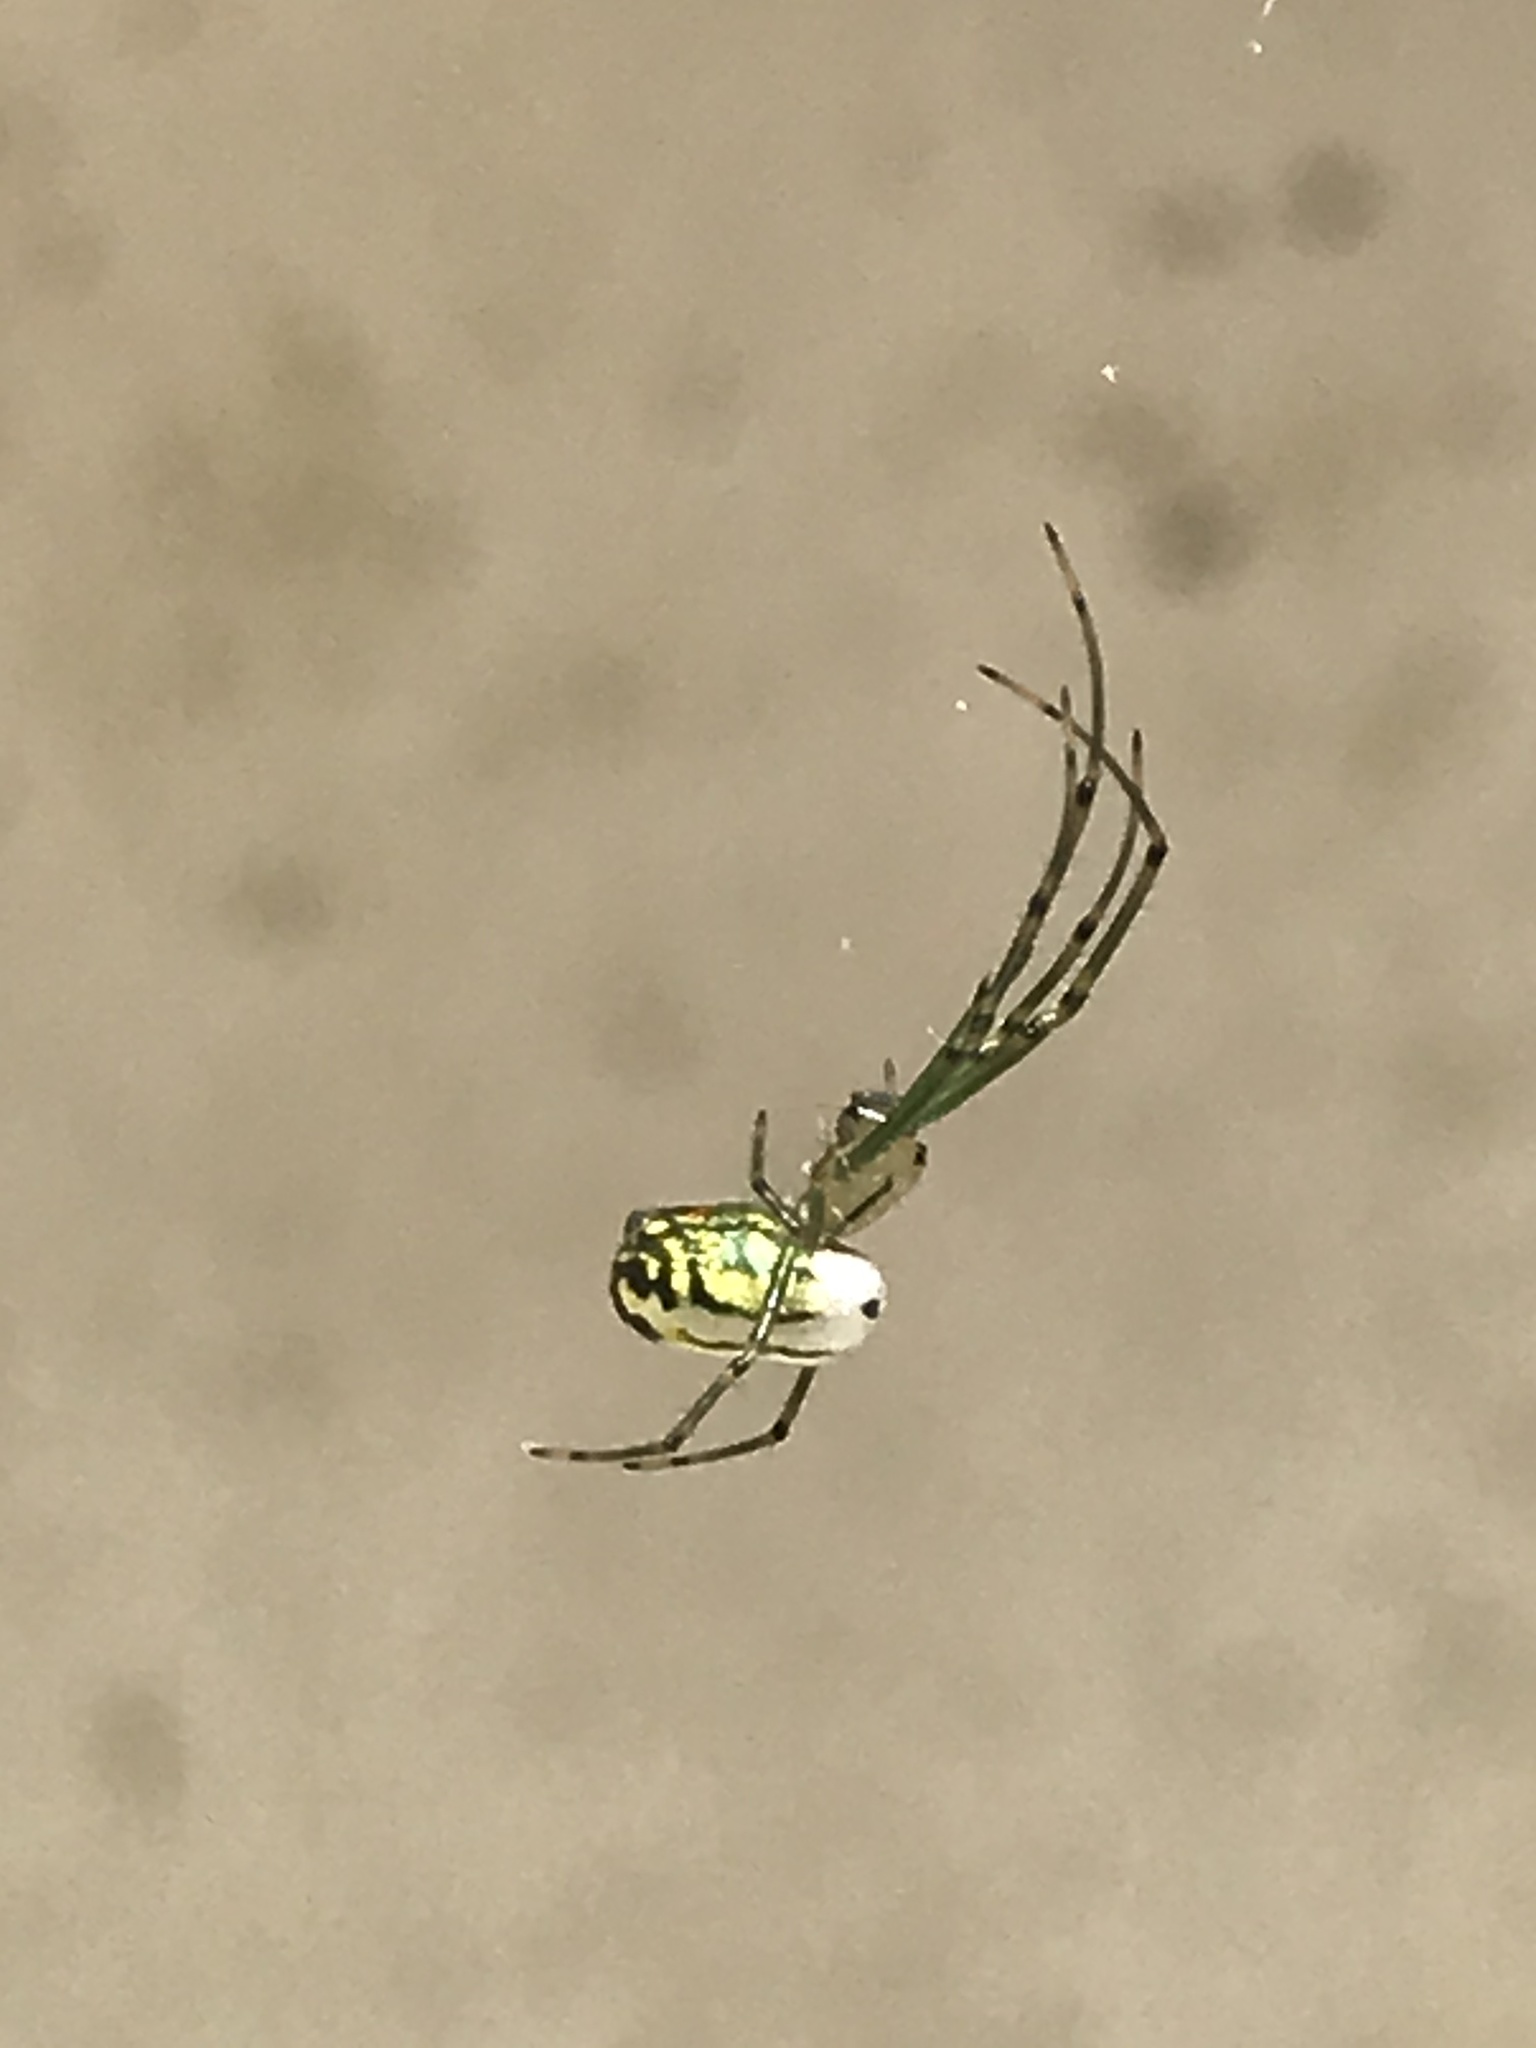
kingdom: Animalia
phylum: Arthropoda
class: Arachnida
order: Araneae
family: Tetragnathidae
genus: Leucauge
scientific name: Leucauge venusta
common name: Longjawed orb weavers
